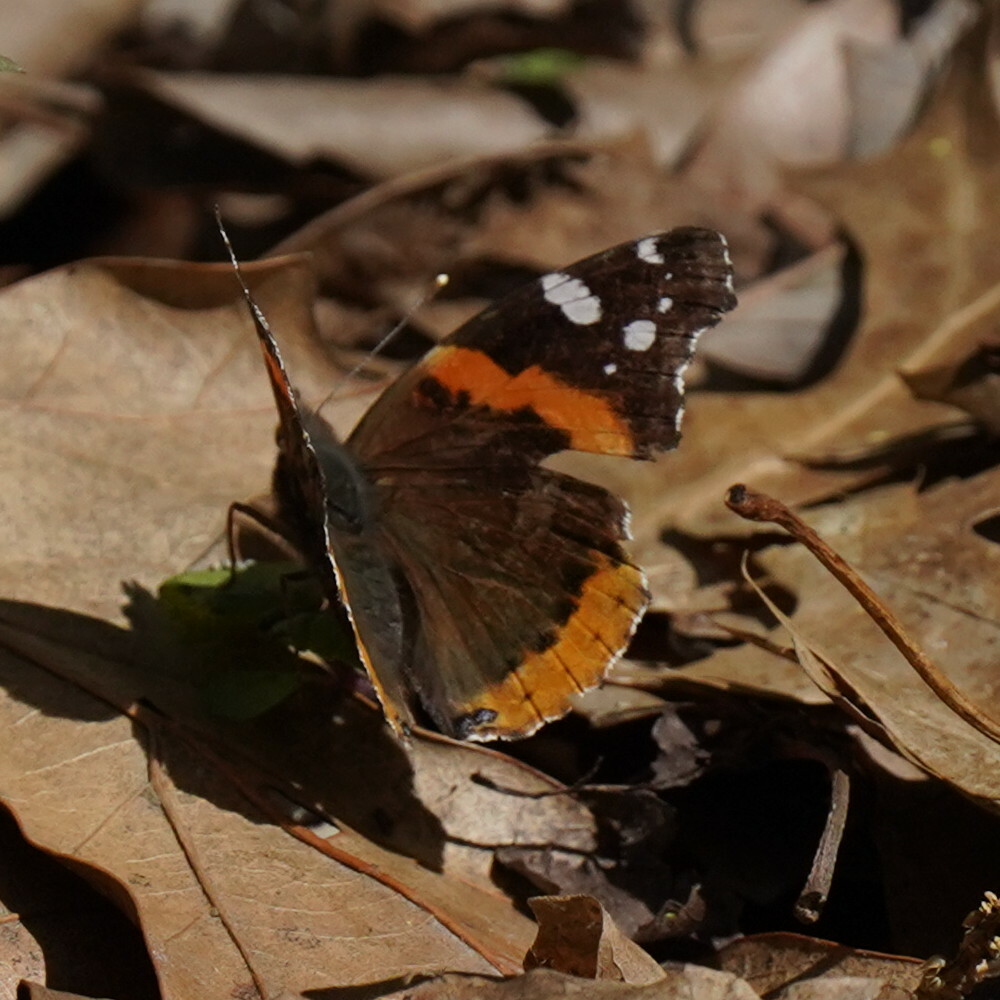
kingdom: Animalia
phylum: Arthropoda
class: Insecta
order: Lepidoptera
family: Nymphalidae
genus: Vanessa
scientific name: Vanessa atalanta
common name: Red admiral
